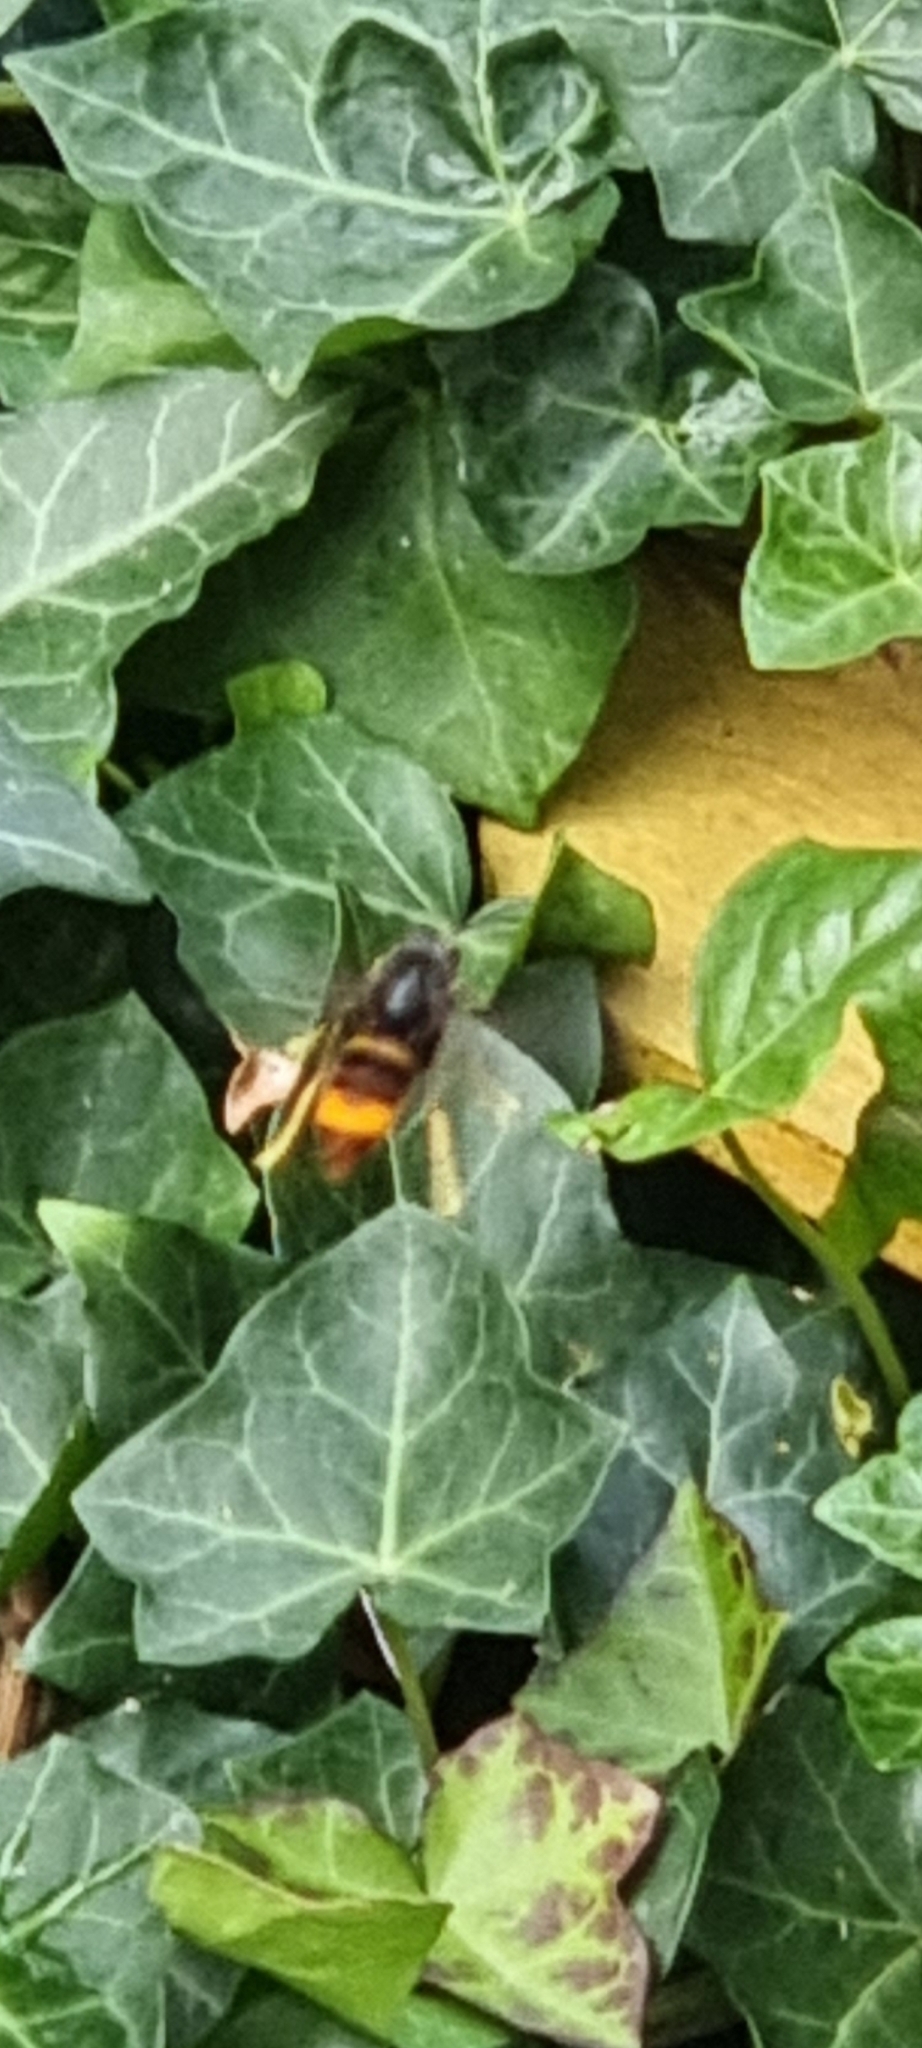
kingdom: Animalia
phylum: Arthropoda
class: Insecta
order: Hymenoptera
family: Vespidae
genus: Vespa
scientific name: Vespa velutina
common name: Asian hornet
